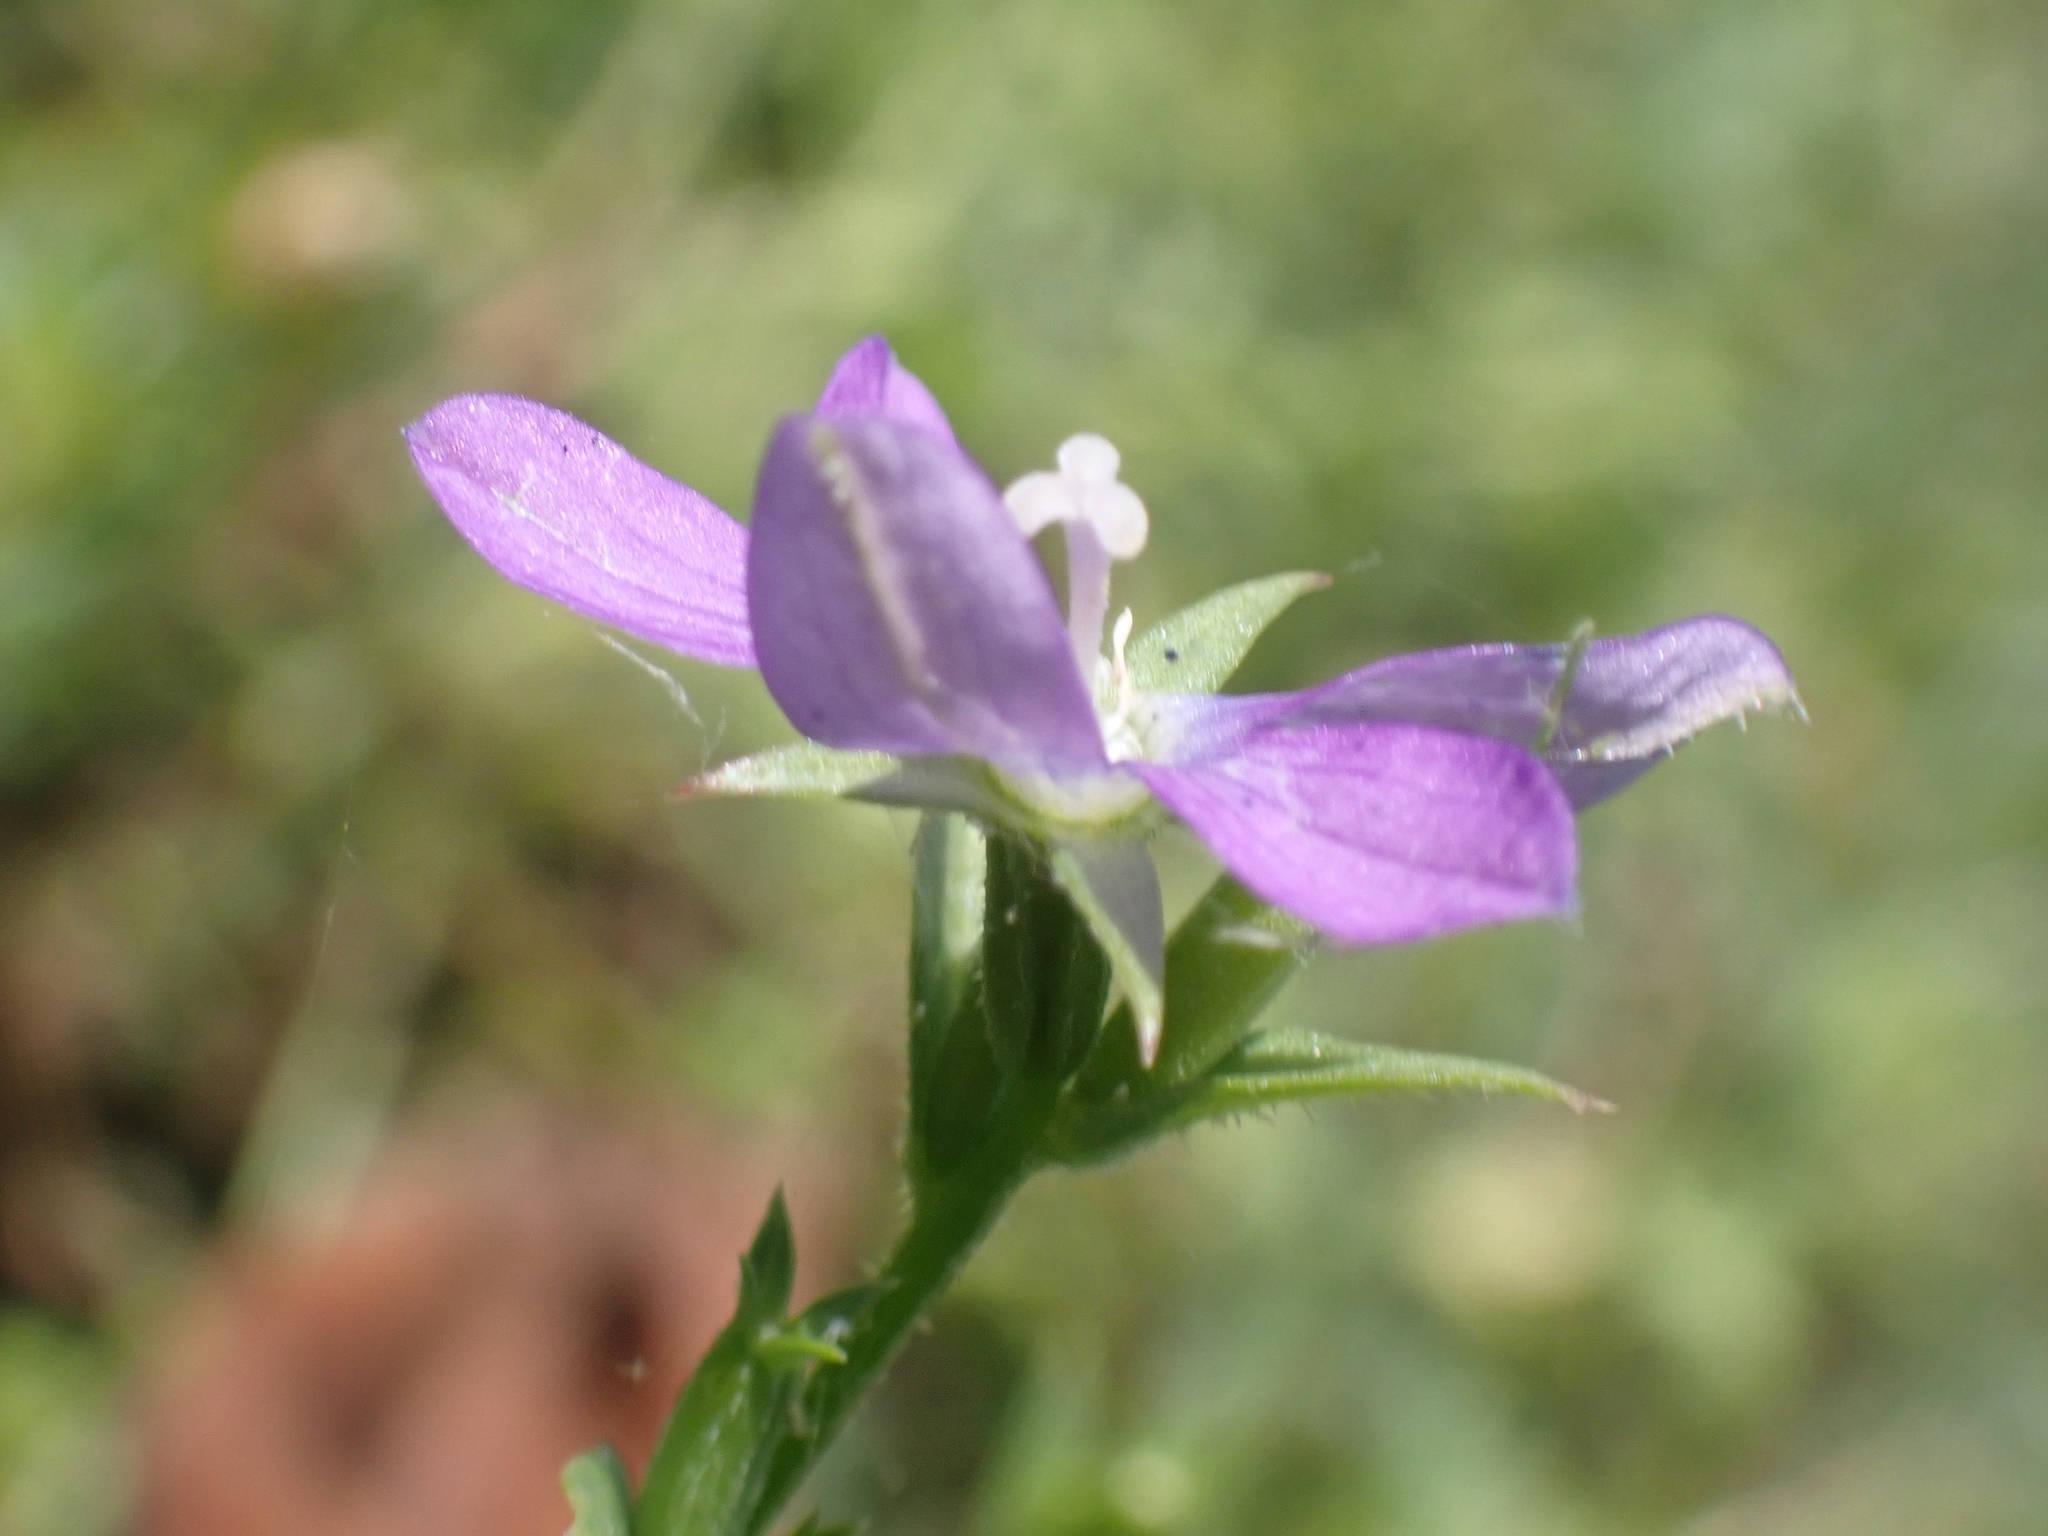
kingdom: Plantae
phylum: Tracheophyta
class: Magnoliopsida
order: Asterales
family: Campanulaceae
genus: Triodanis
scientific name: Triodanis biflora
